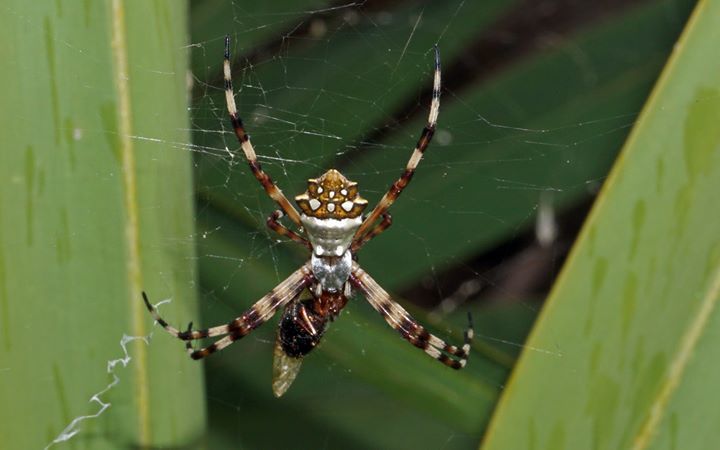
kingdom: Animalia
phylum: Arthropoda
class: Arachnida
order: Araneae
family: Araneidae
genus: Argiope
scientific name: Argiope argentata
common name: Orb weavers
